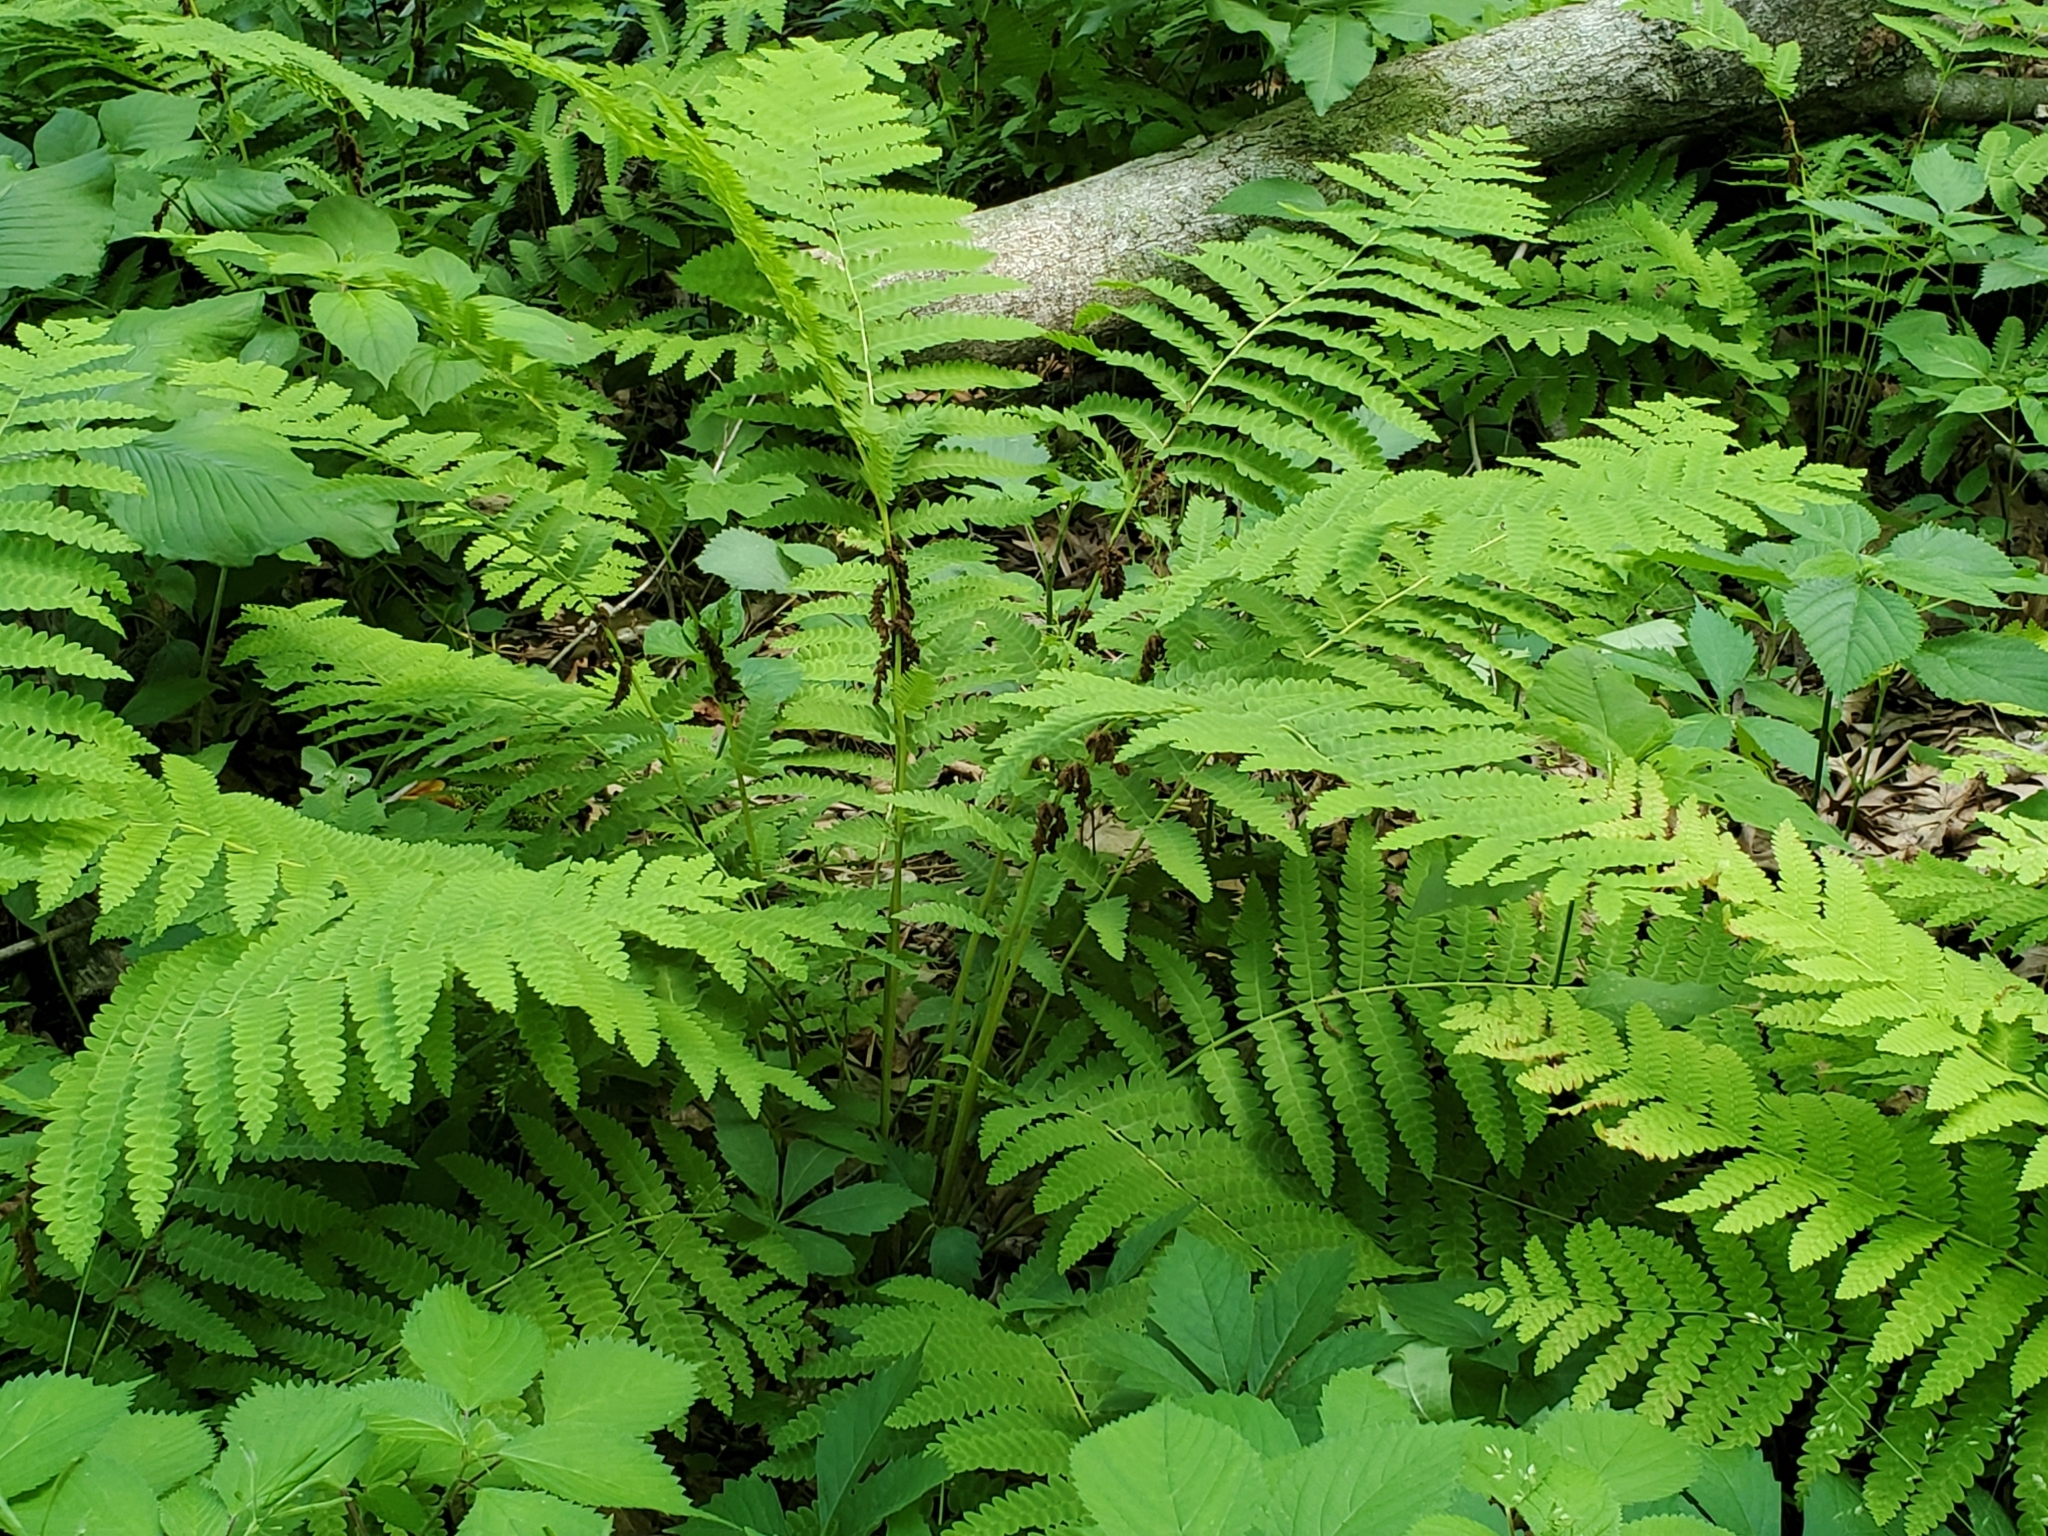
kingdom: Plantae
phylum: Tracheophyta
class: Polypodiopsida
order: Osmundales
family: Osmundaceae
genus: Claytosmunda
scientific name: Claytosmunda claytoniana
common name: Clayton's fern
